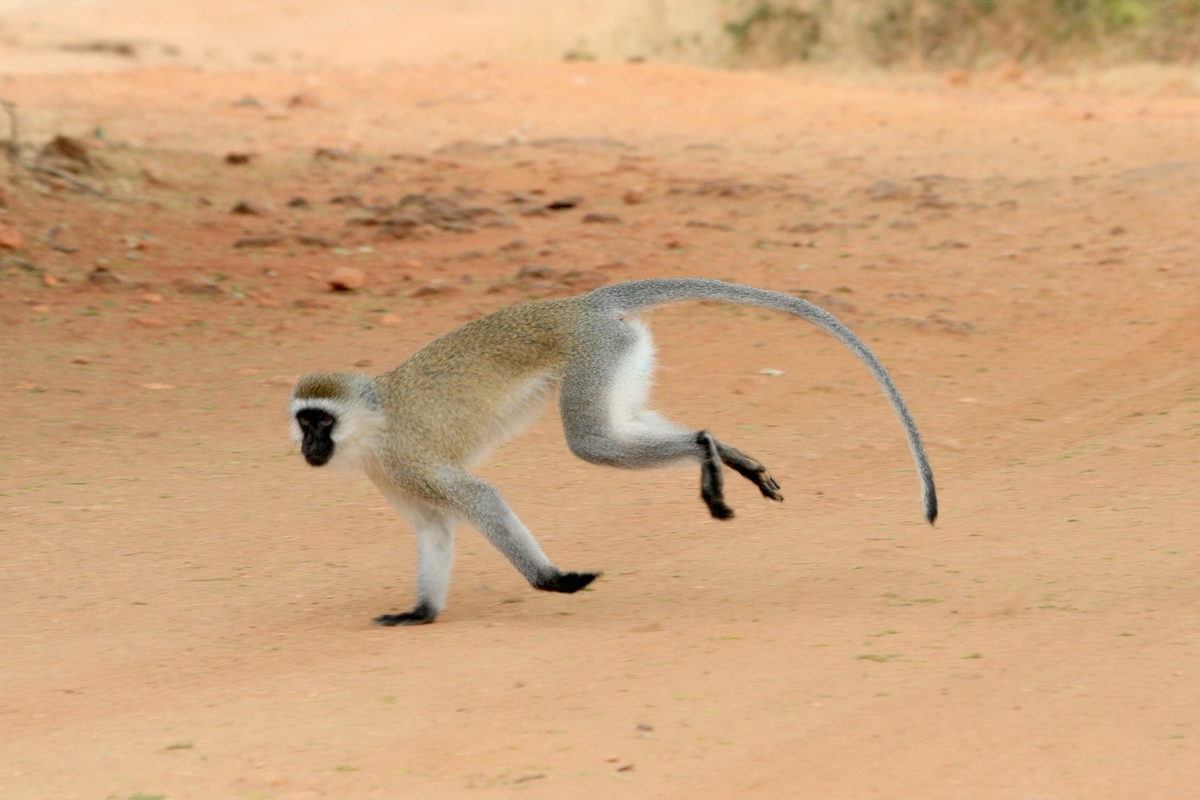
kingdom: Animalia
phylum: Chordata
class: Mammalia
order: Primates
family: Cercopithecidae
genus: Chlorocebus
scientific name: Chlorocebus pygerythrus
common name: Vervet monkey
